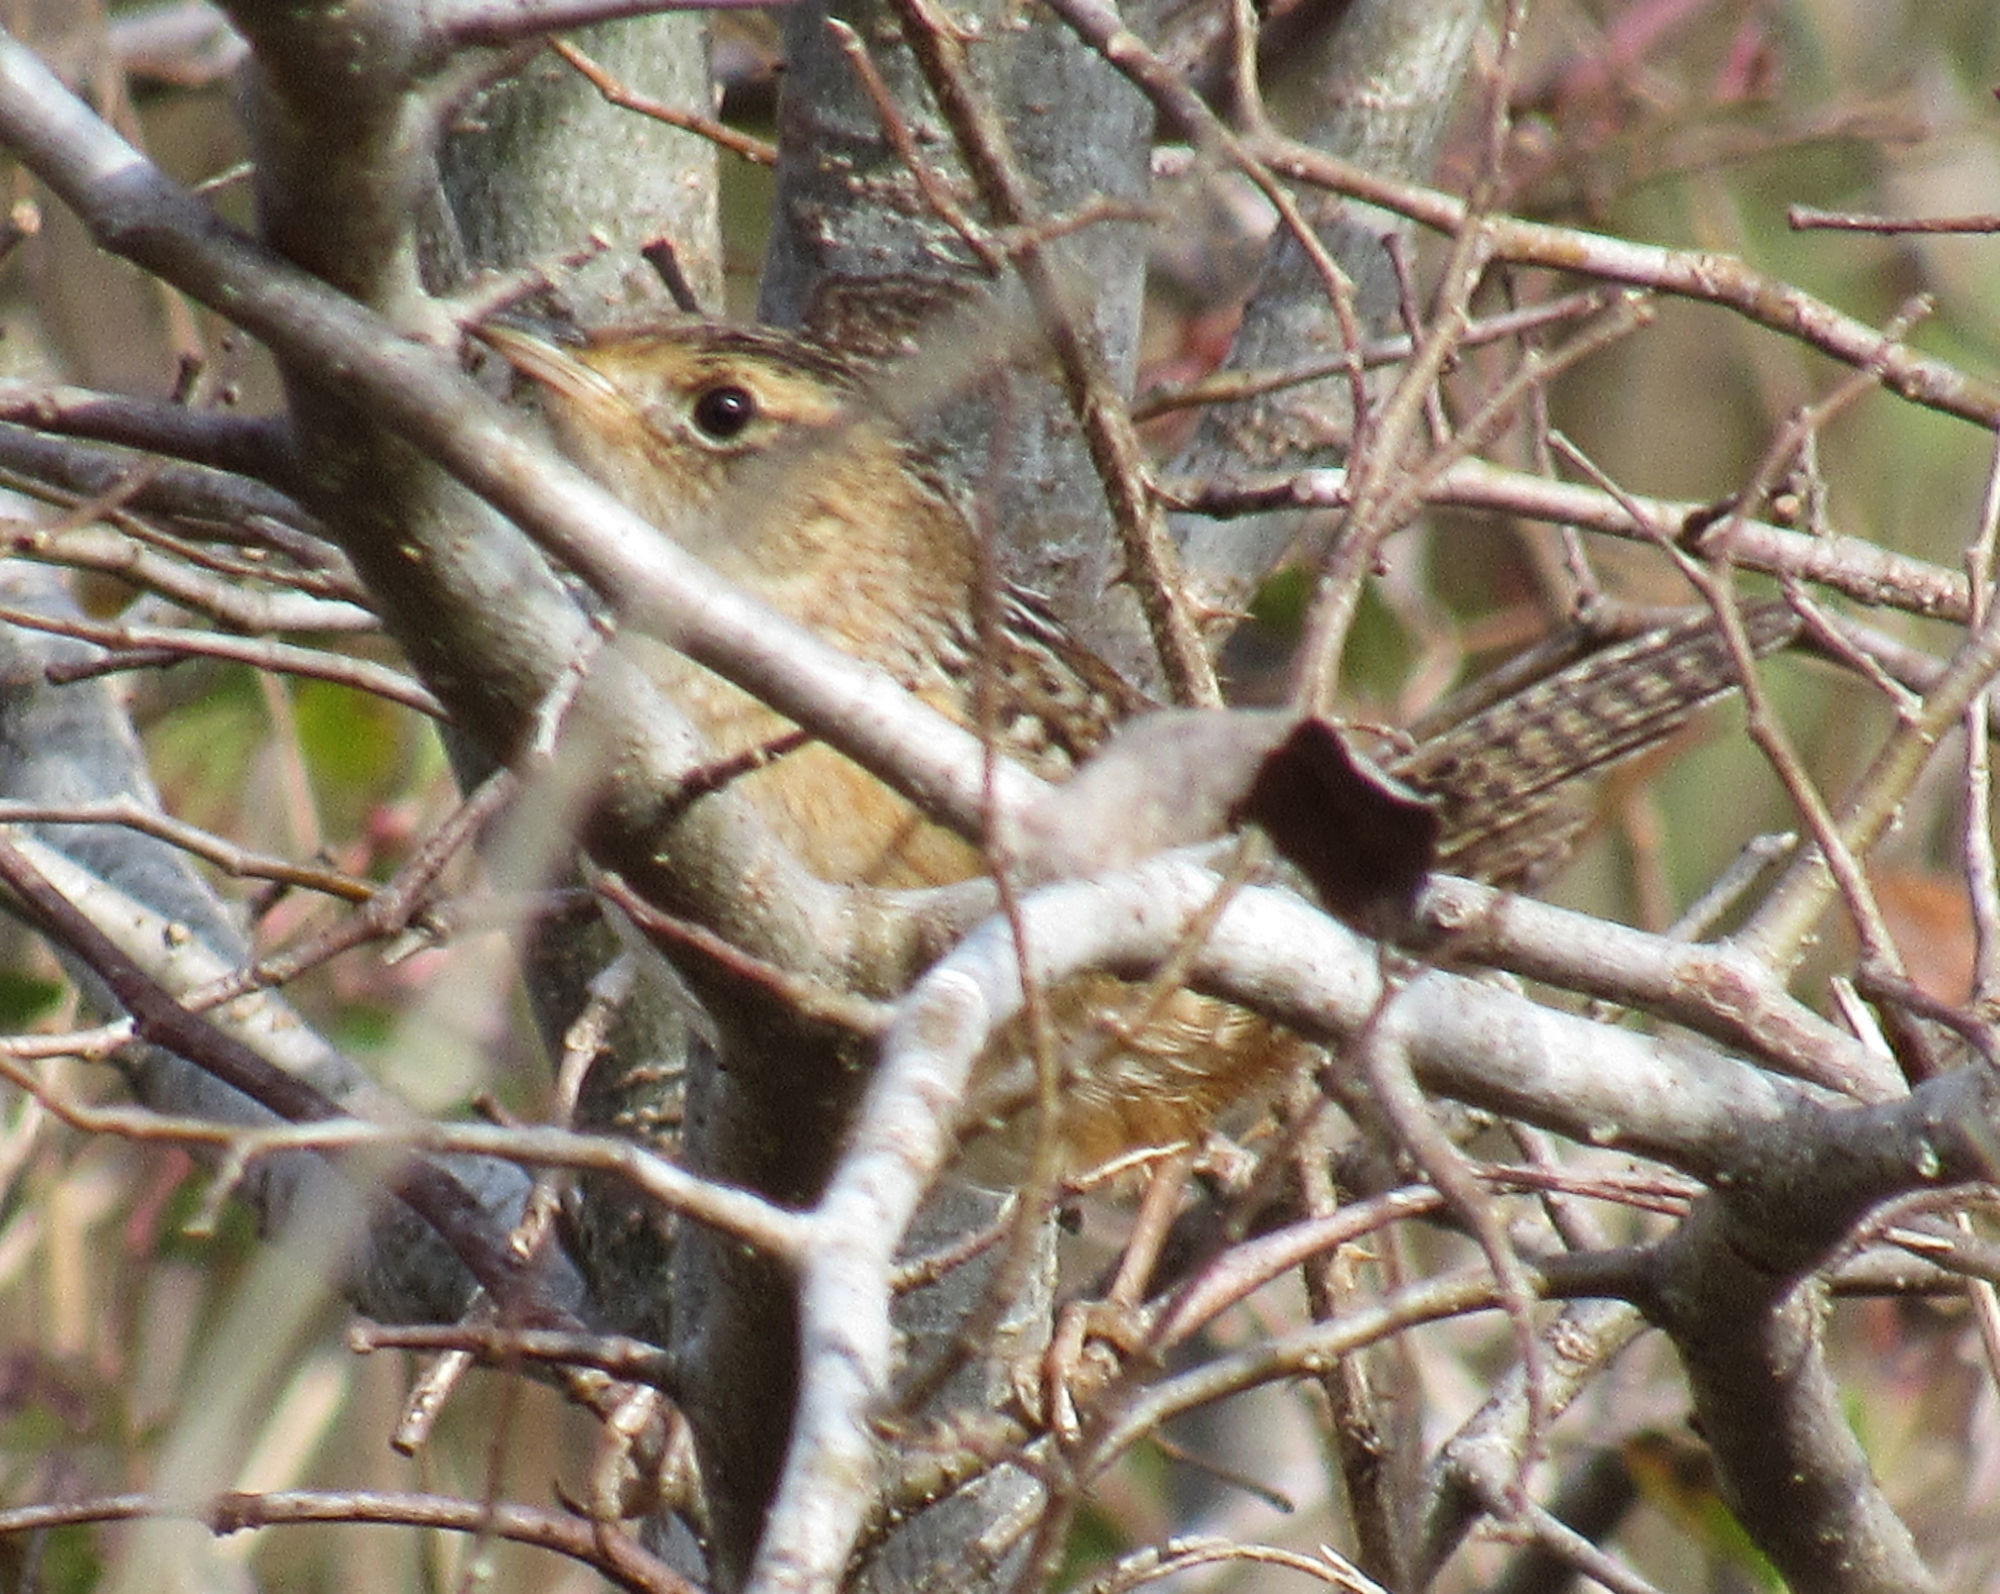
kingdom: Animalia
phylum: Chordata
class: Aves
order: Passeriformes
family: Troglodytidae
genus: Cistothorus
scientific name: Cistothorus platensis
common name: Sedge wren
